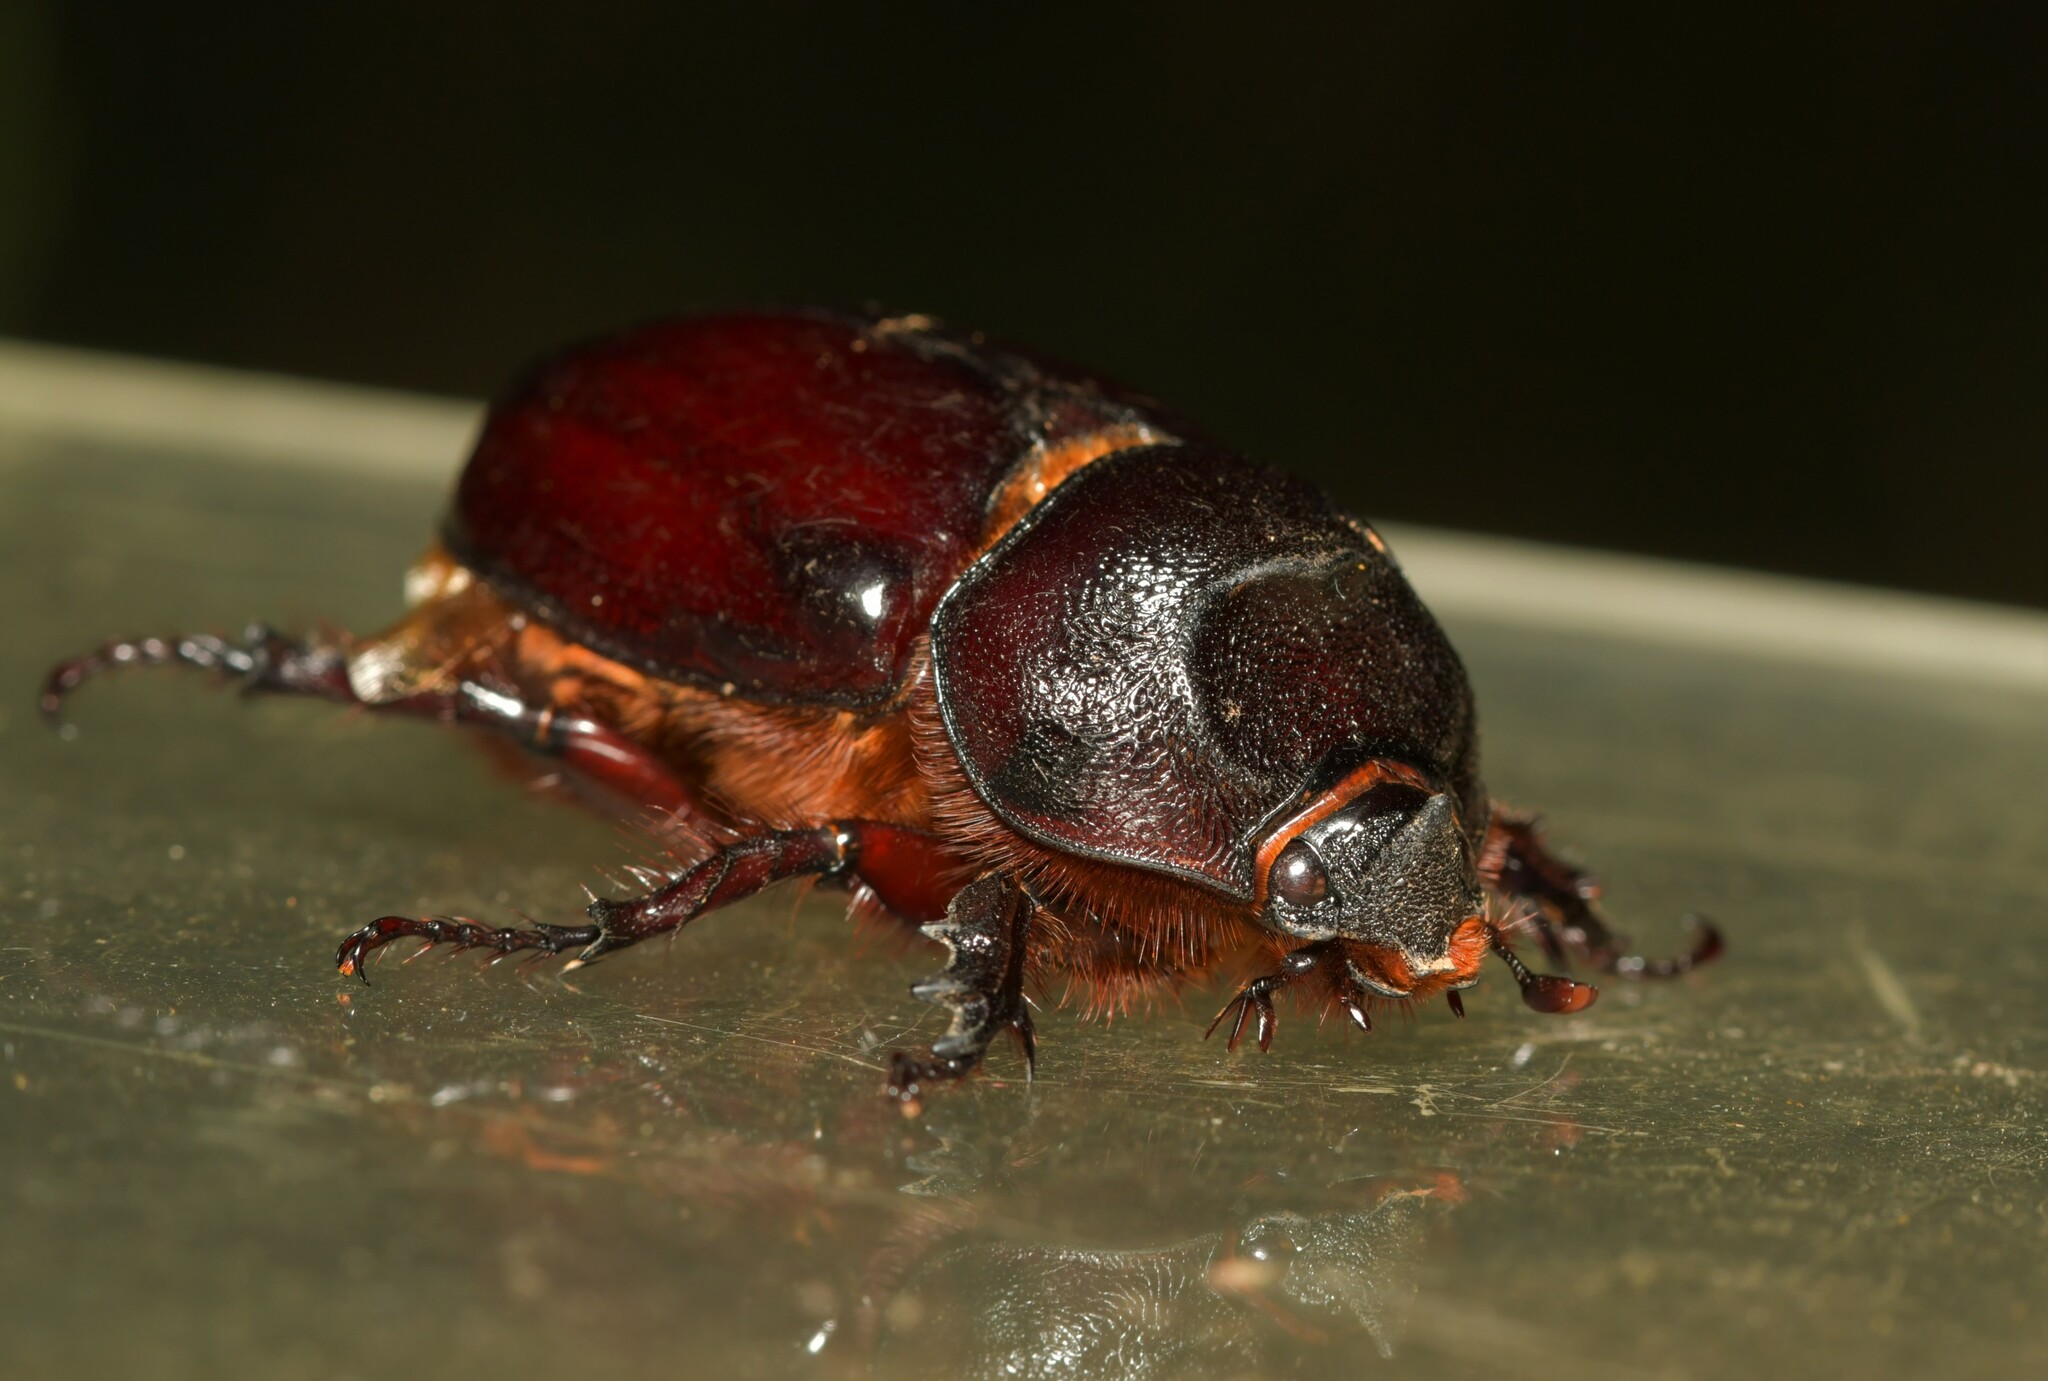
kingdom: Animalia
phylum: Arthropoda
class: Insecta
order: Coleoptera
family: Scarabaeidae
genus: Oryctes
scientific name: Oryctes nasicornis
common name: European rhinoceros beetle
